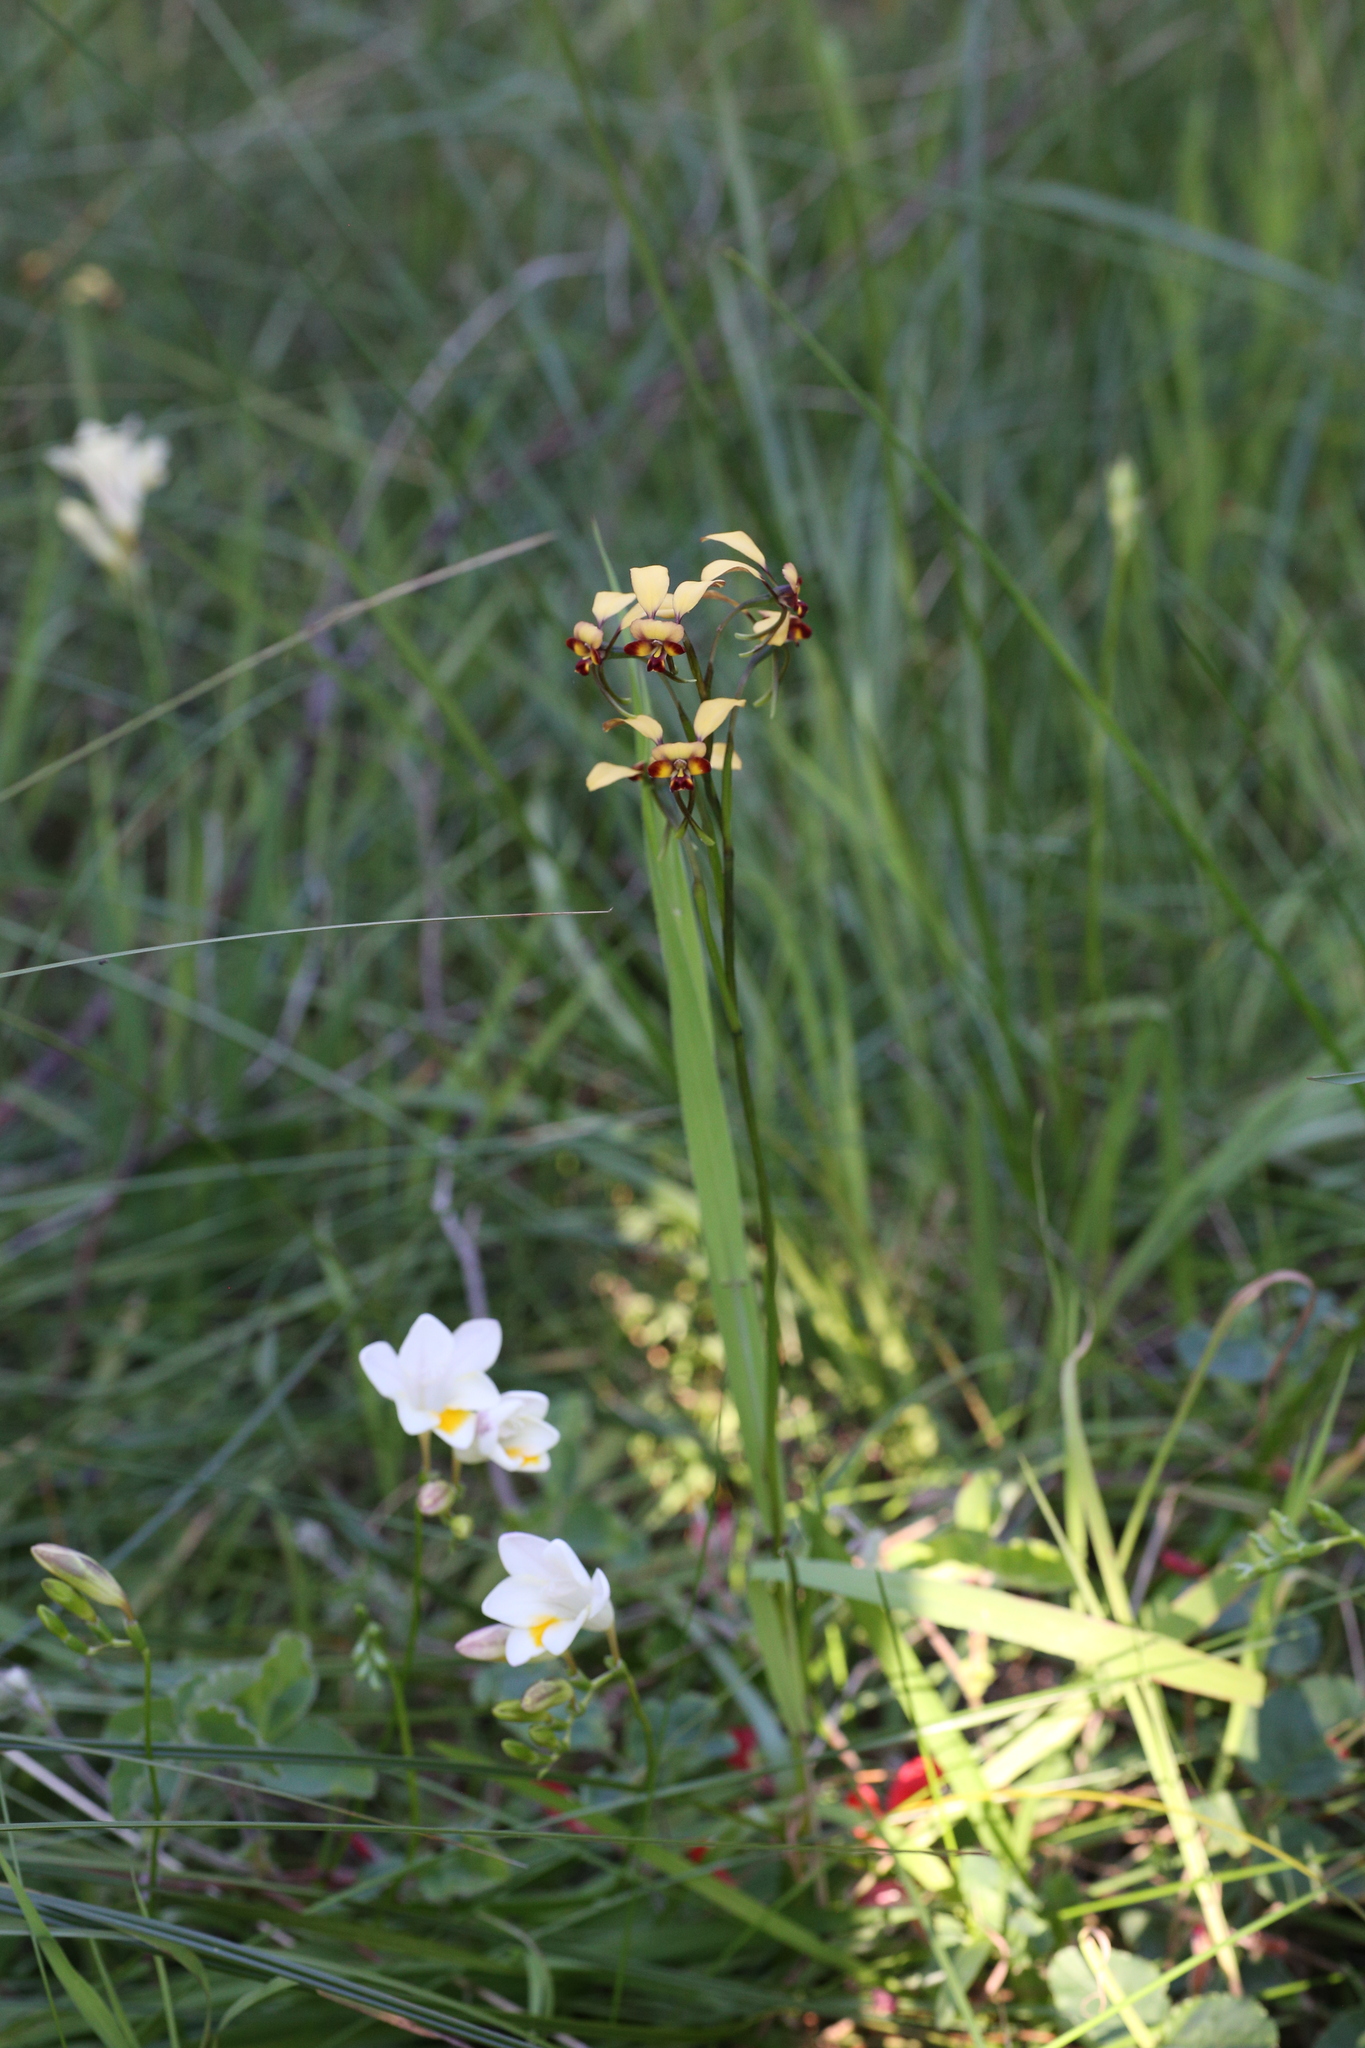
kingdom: Plantae
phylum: Tracheophyta
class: Liliopsida
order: Asparagales
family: Orchidaceae
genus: Diuris
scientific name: Diuris corymbosa
